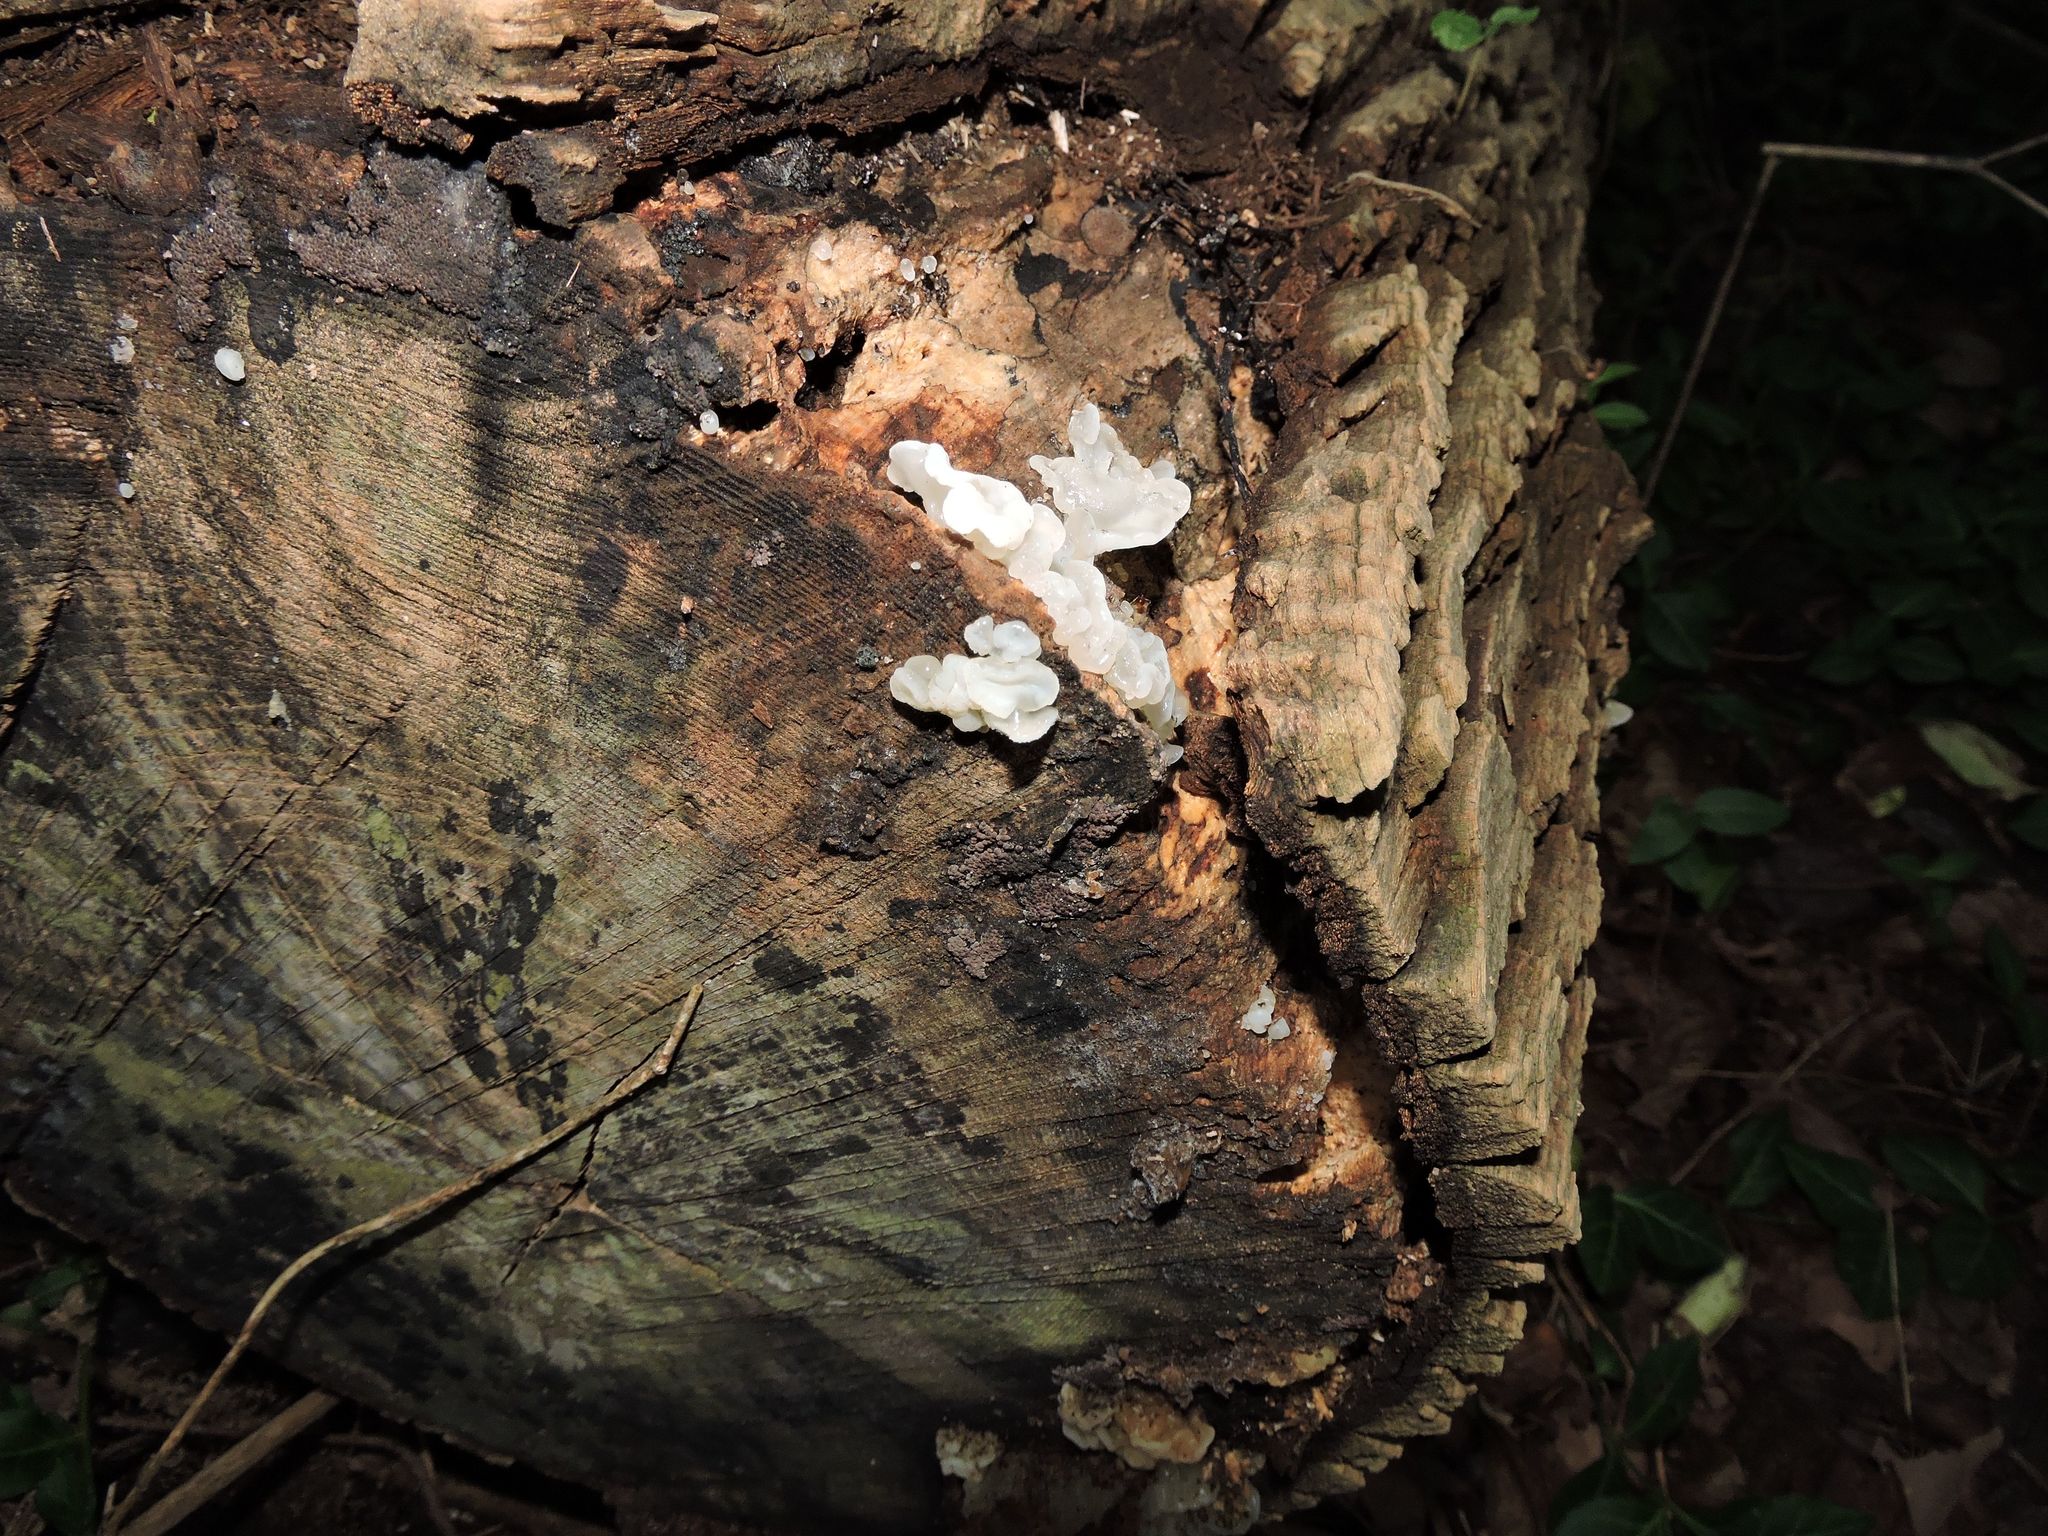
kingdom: Fungi
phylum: Basidiomycota
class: Agaricomycetes
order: Auriculariales
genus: Ductifera
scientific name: Ductifera pululahuana
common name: White jelly fungus
